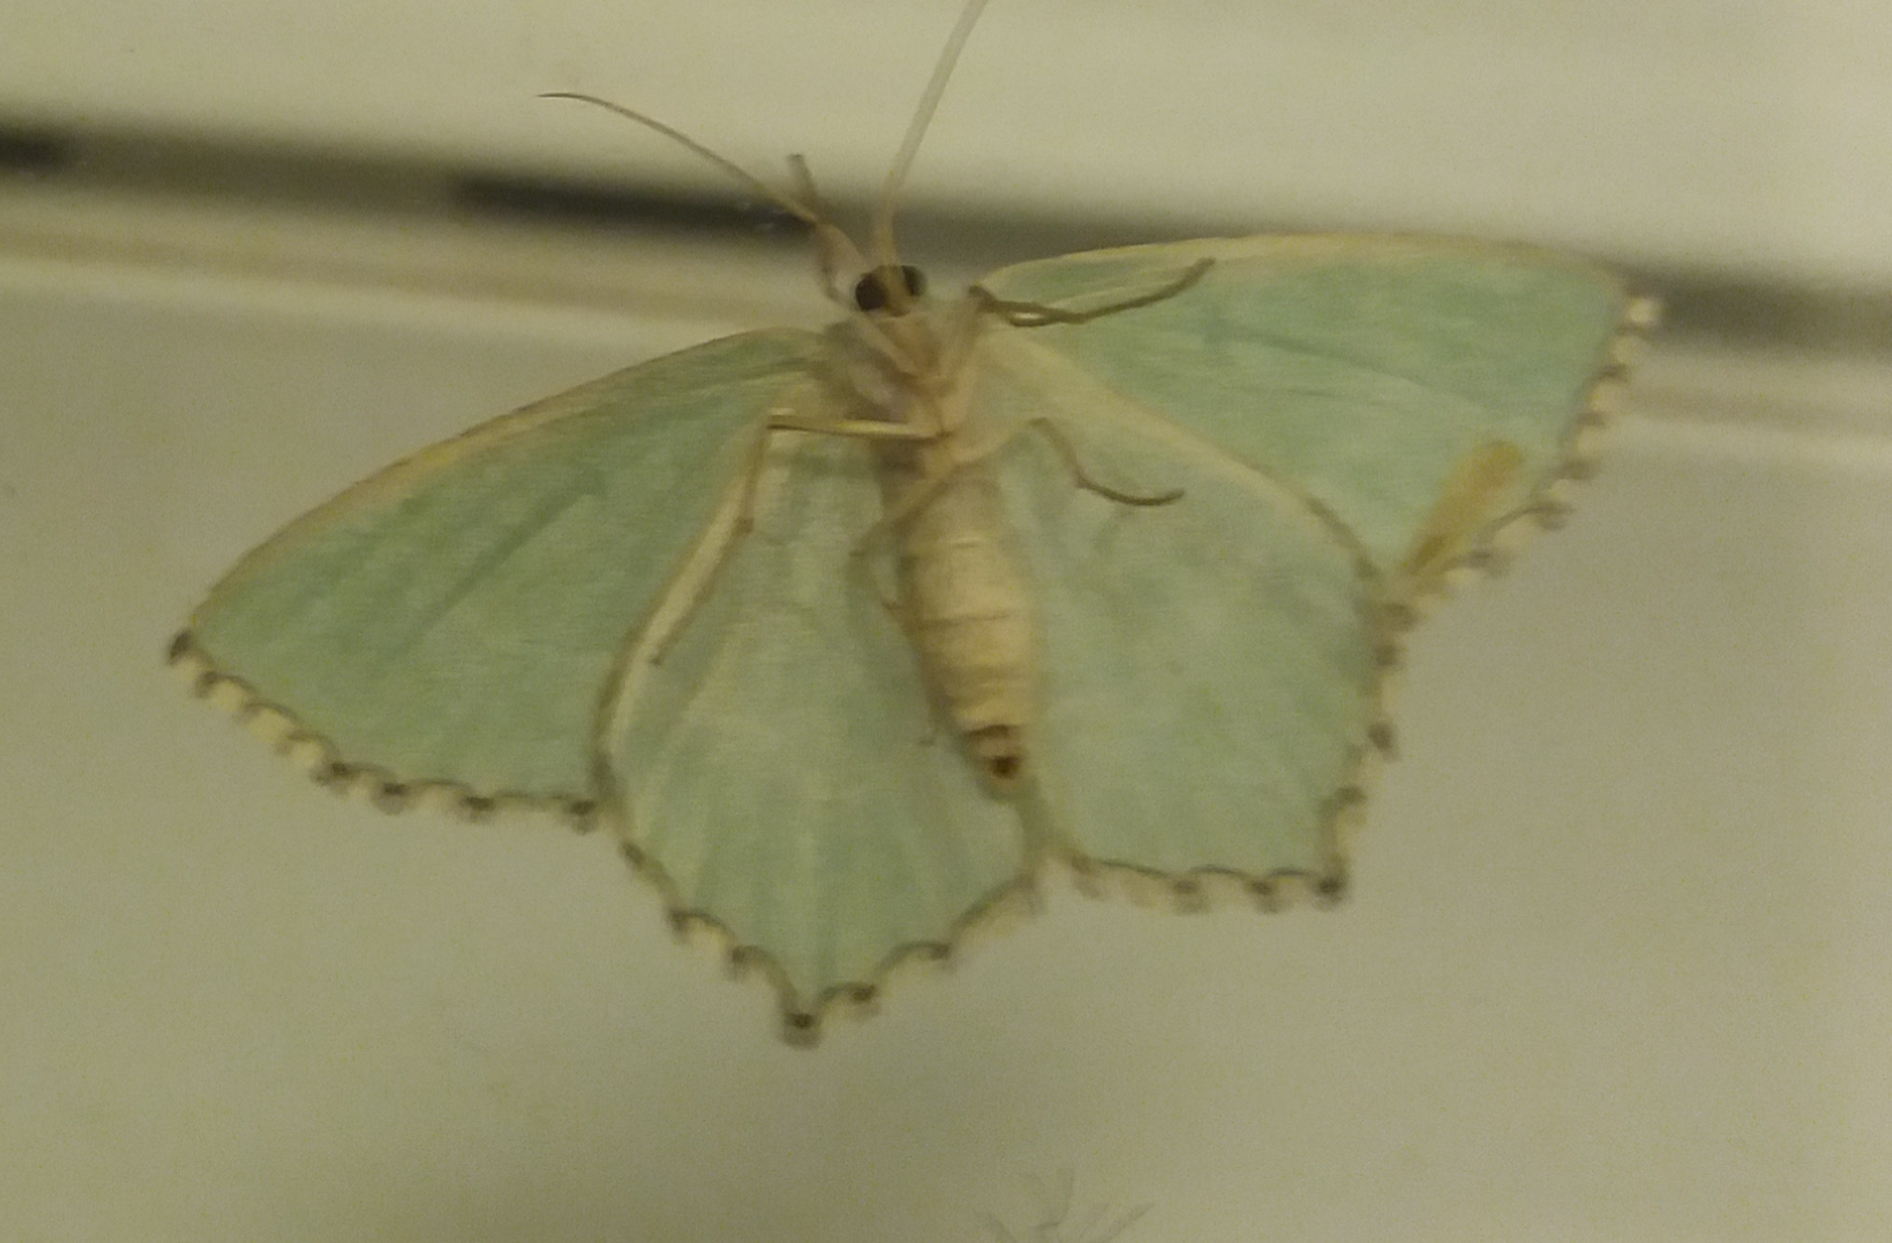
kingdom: Animalia
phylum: Arthropoda
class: Insecta
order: Lepidoptera
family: Geometridae
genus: Hemithea
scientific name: Hemithea aestivaria
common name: Common emerald
